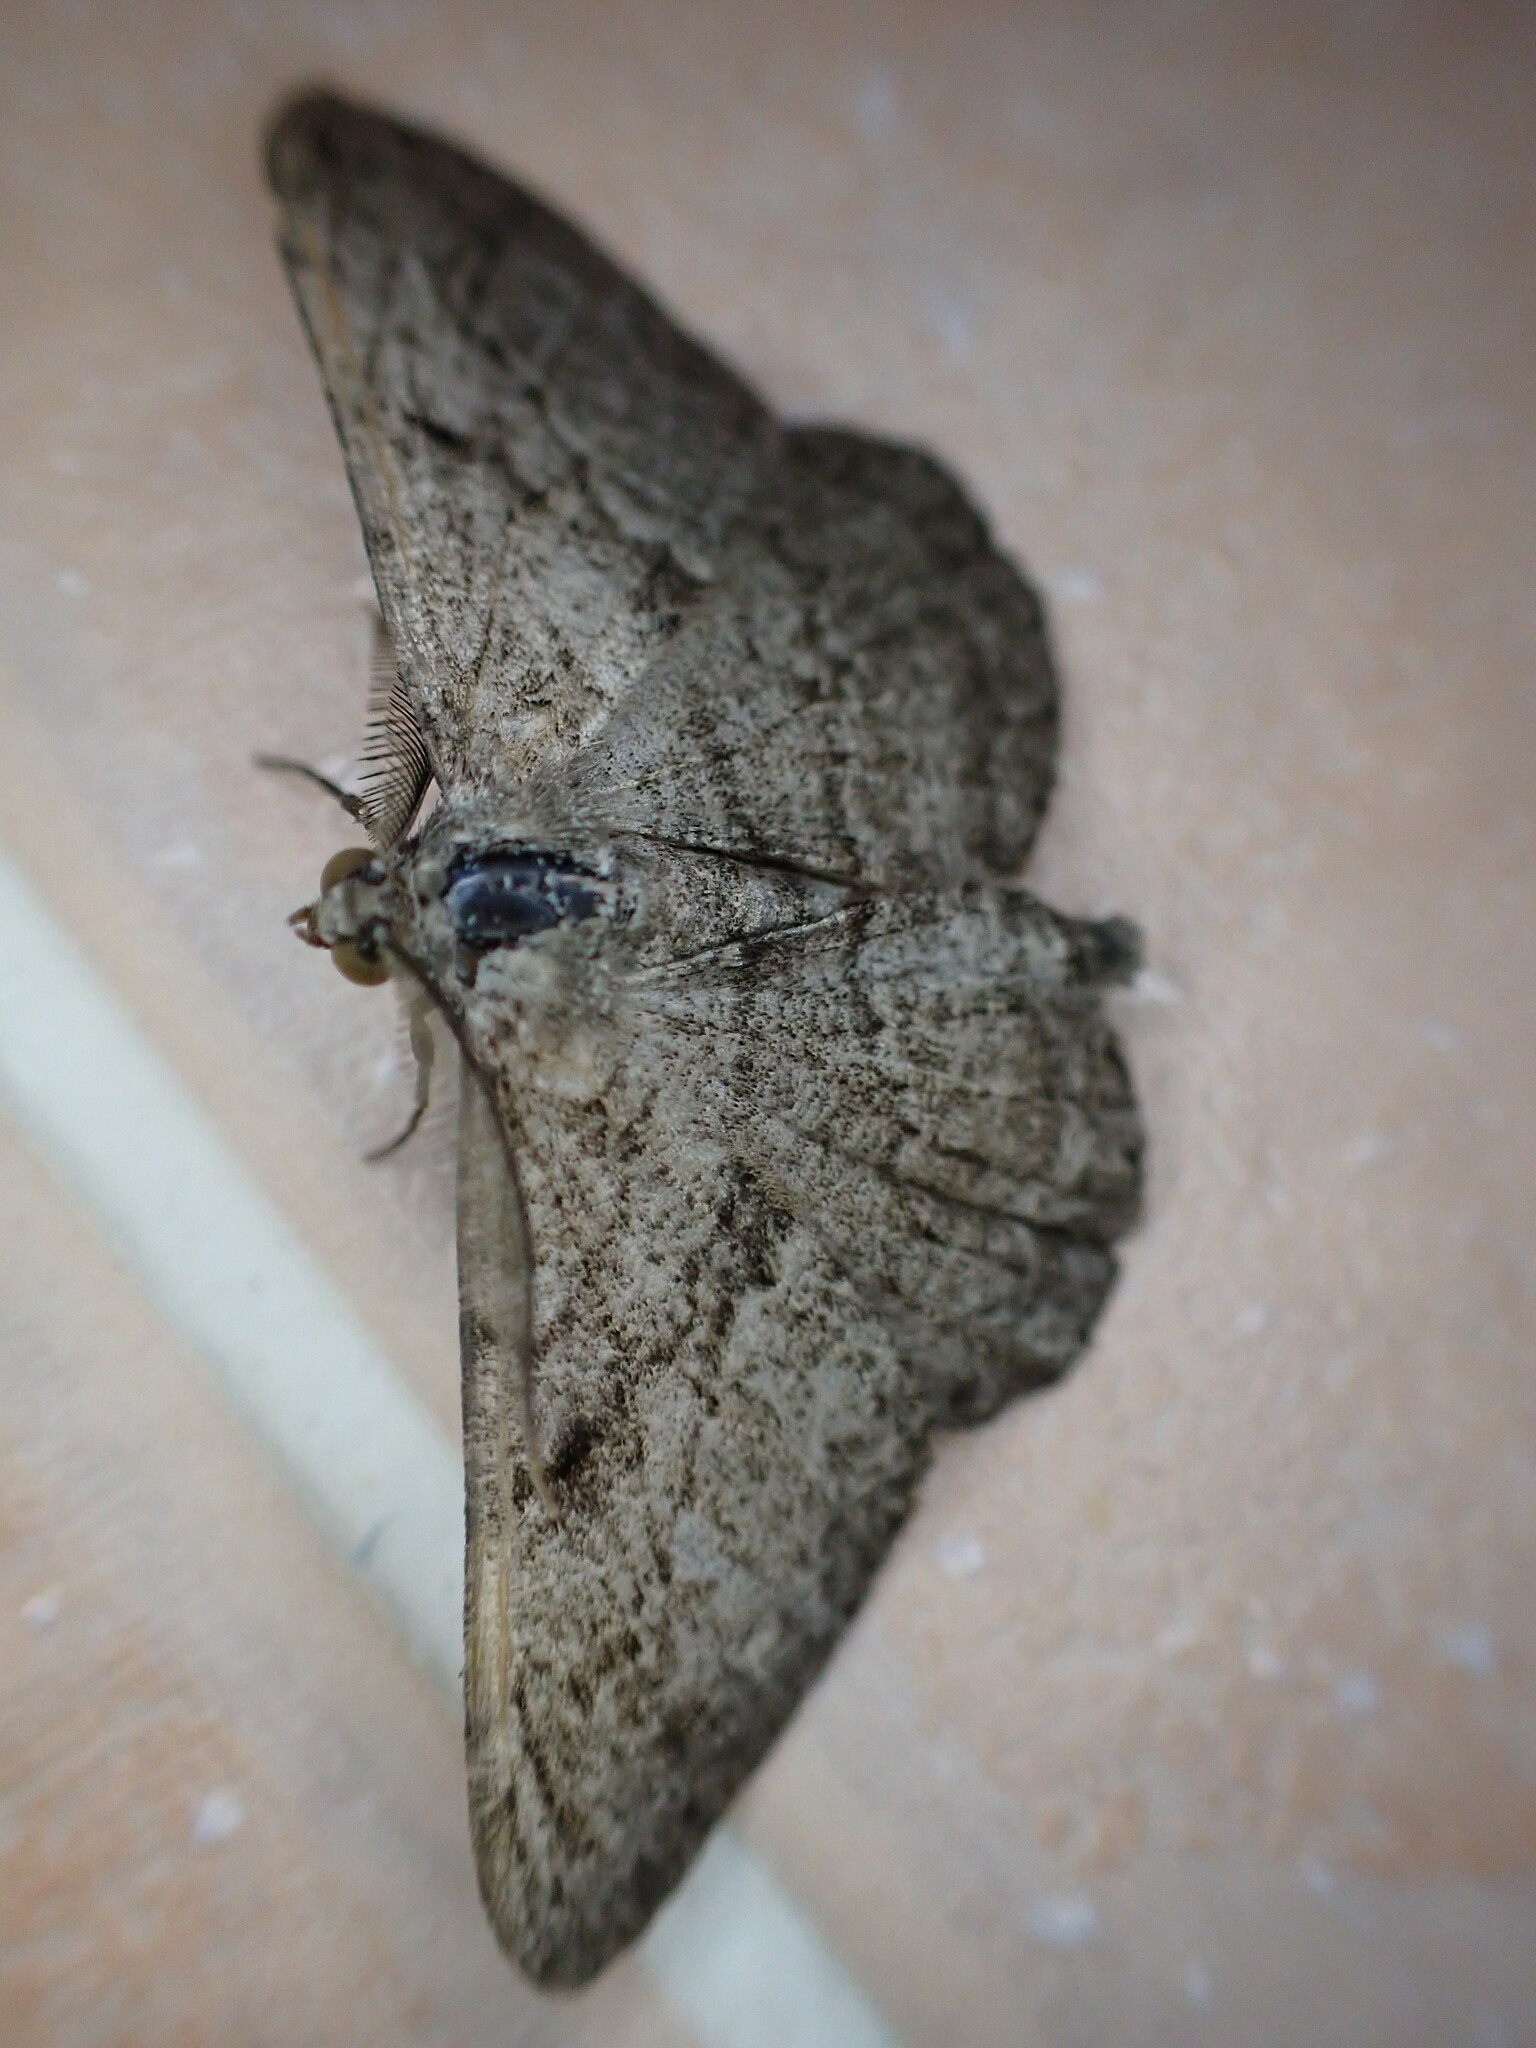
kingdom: Animalia
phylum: Arthropoda
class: Insecta
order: Lepidoptera
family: Geometridae
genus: Peribatodes
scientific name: Peribatodes rhomboidaria
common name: Willow beauty
